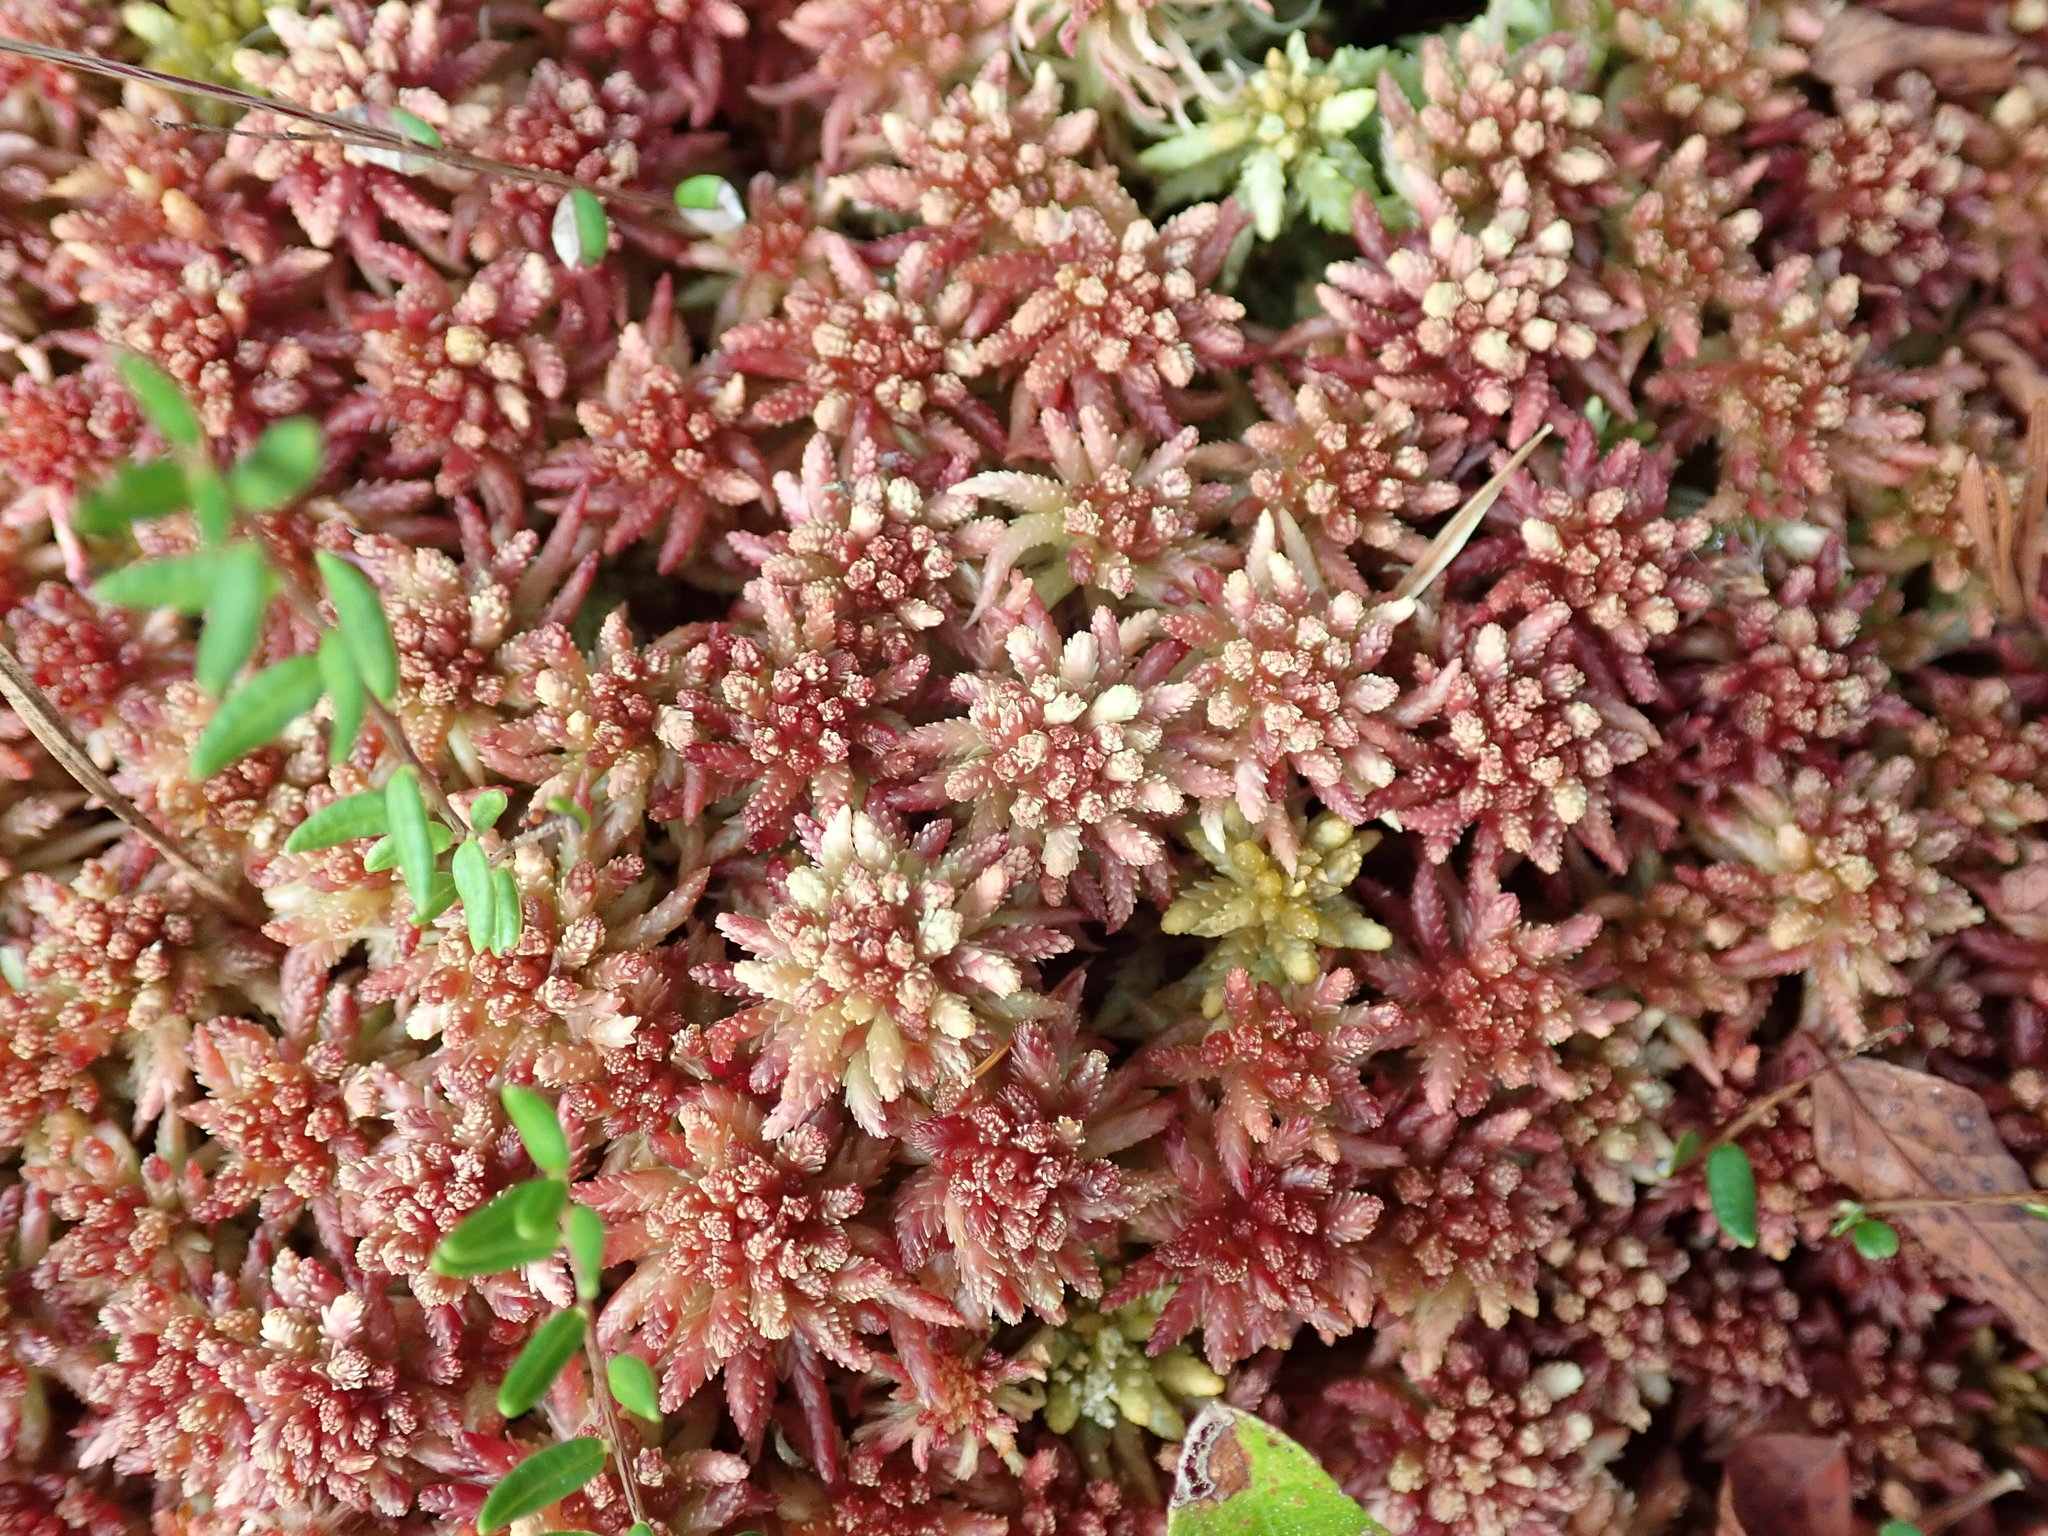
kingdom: Plantae
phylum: Bryophyta
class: Sphagnopsida
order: Sphagnales
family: Sphagnaceae
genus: Sphagnum
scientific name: Sphagnum
